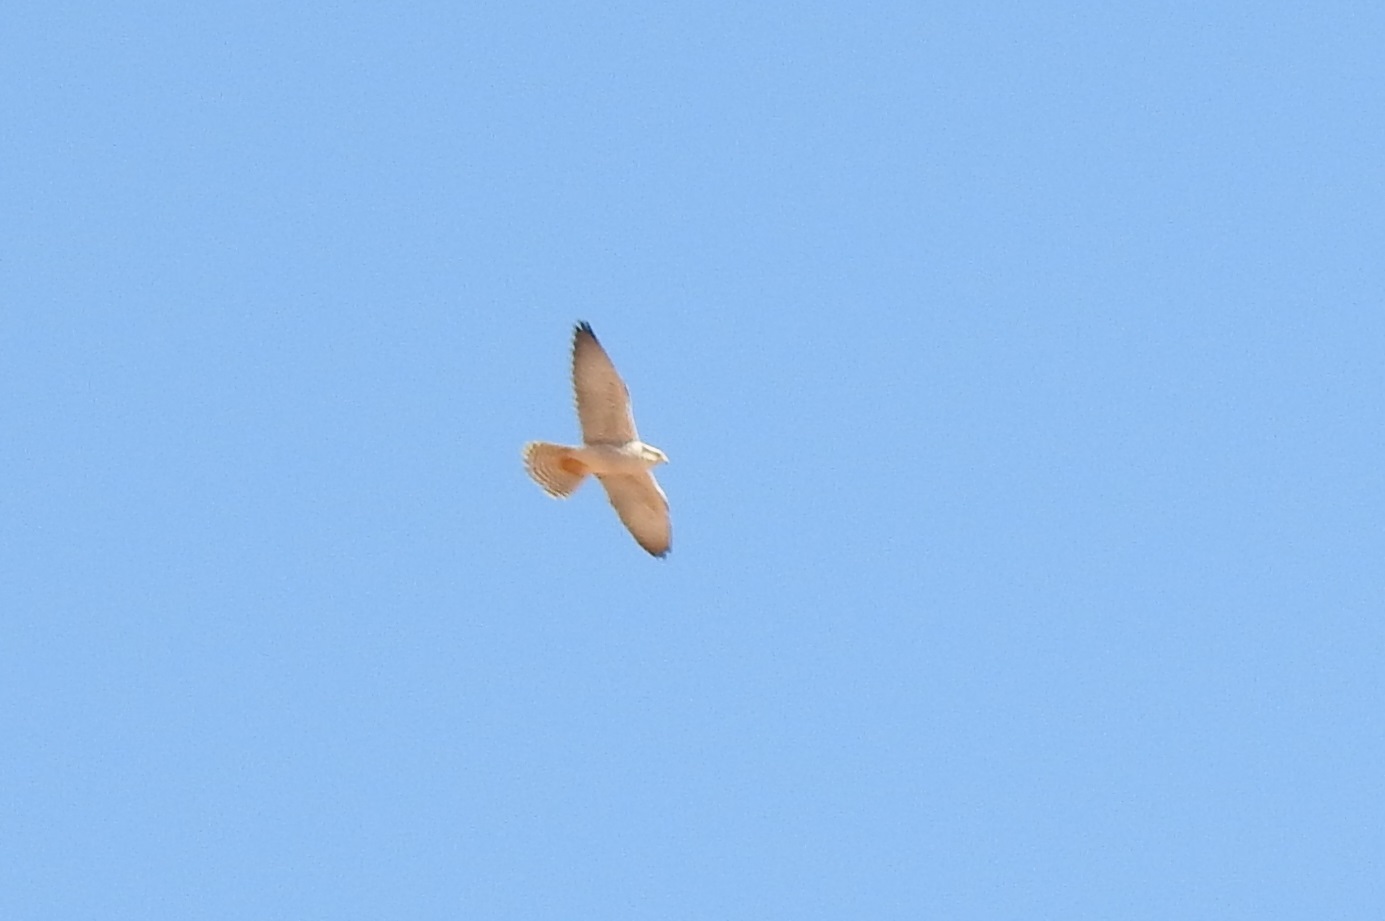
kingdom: Animalia
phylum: Chordata
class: Aves
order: Falconiformes
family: Falconidae
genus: Falco
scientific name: Falco biarmicus
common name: Lanner falcon
